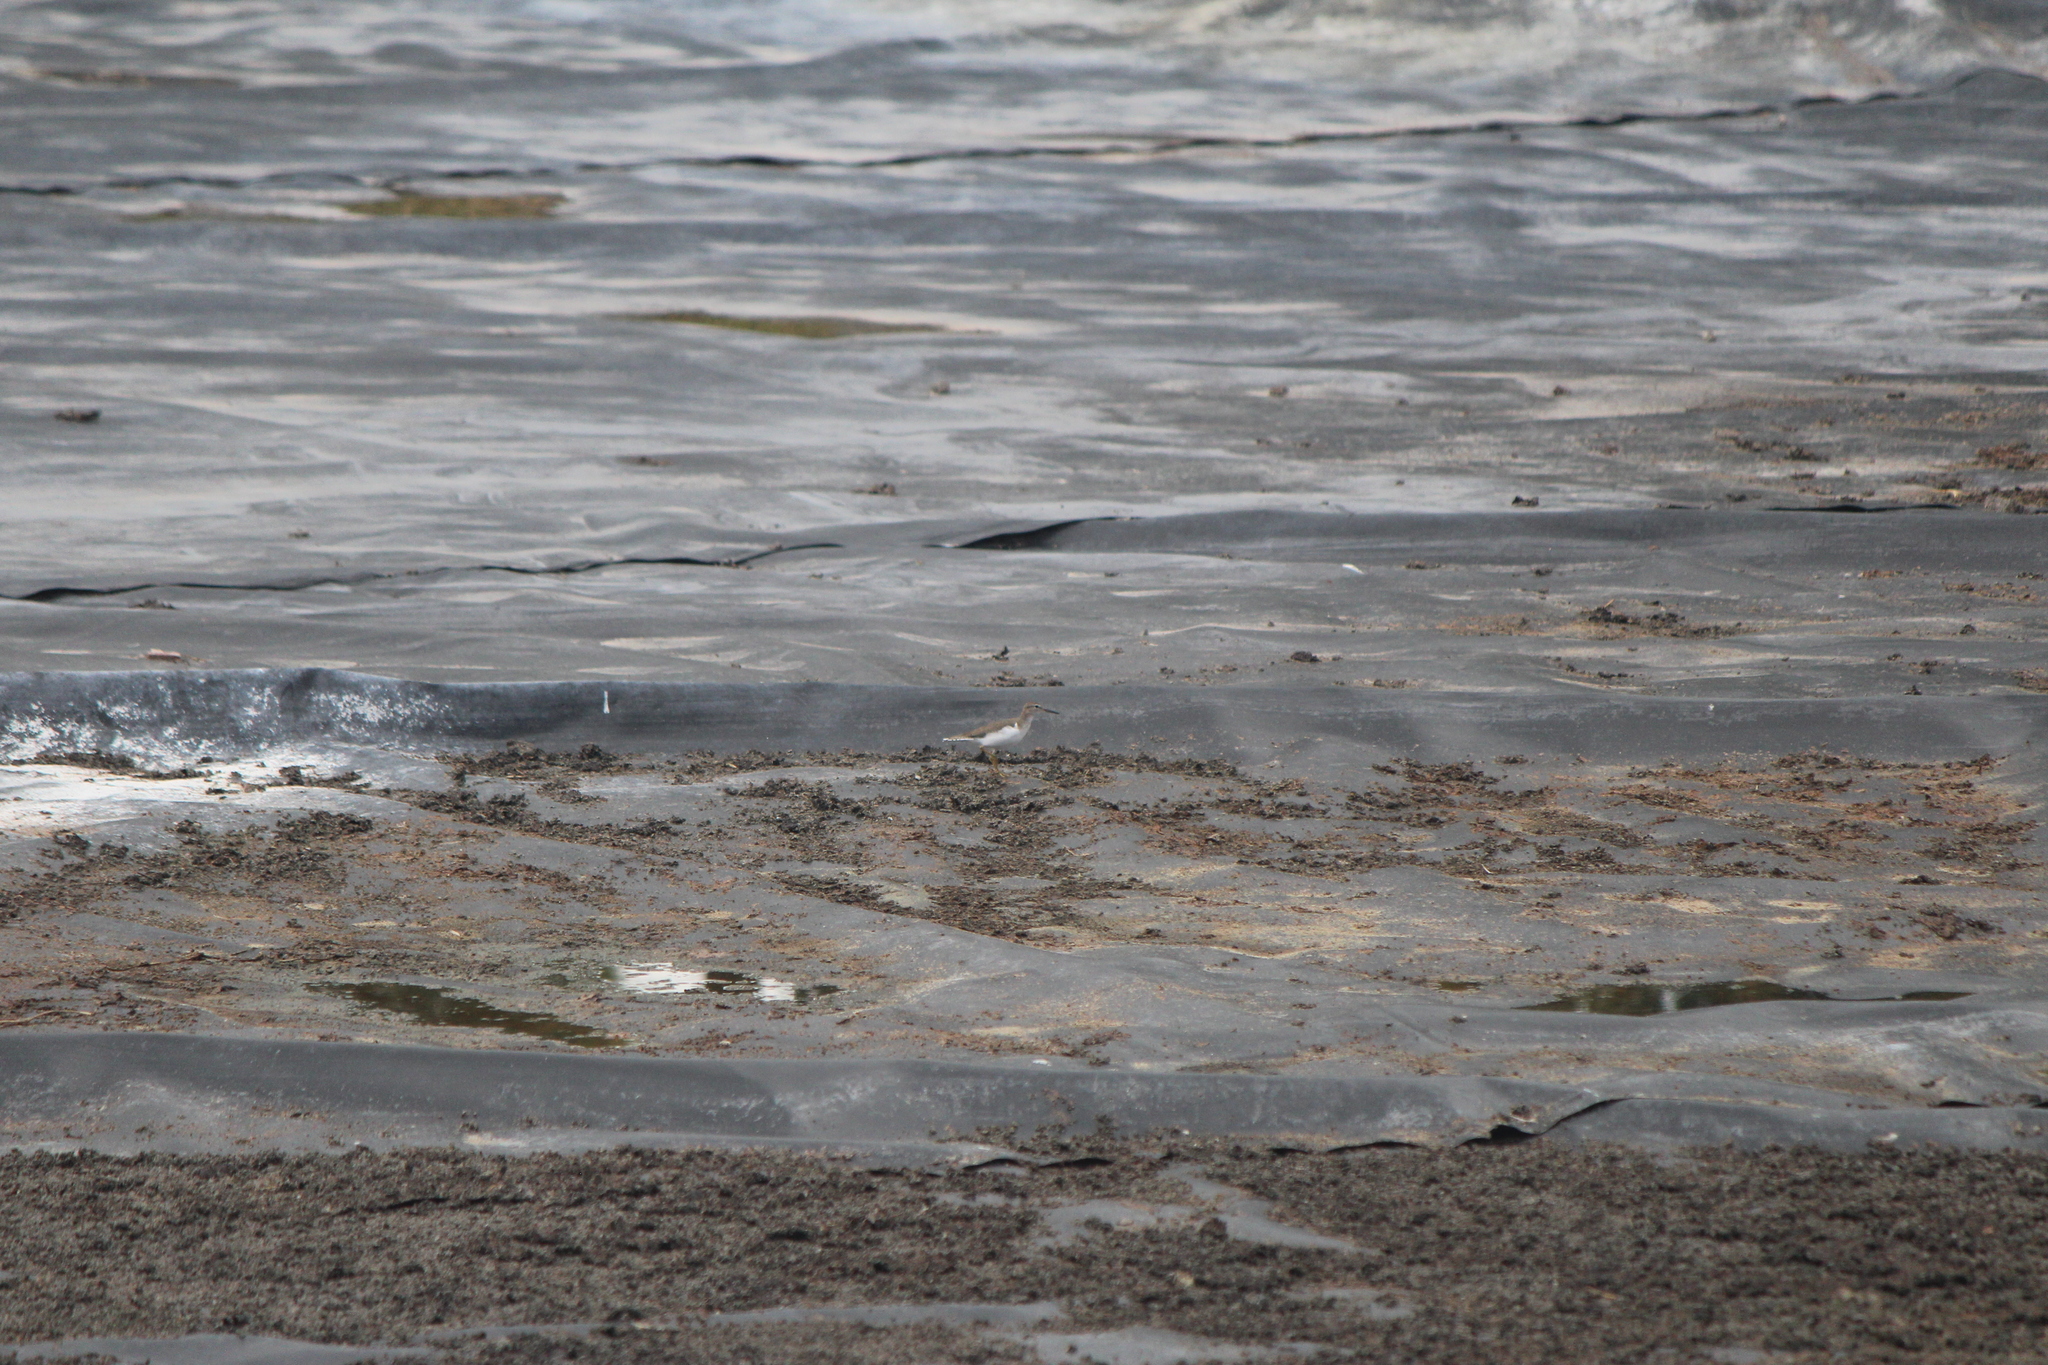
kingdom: Animalia
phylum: Chordata
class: Aves
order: Charadriiformes
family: Scolopacidae
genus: Actitis
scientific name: Actitis macularius
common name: Spotted sandpiper
